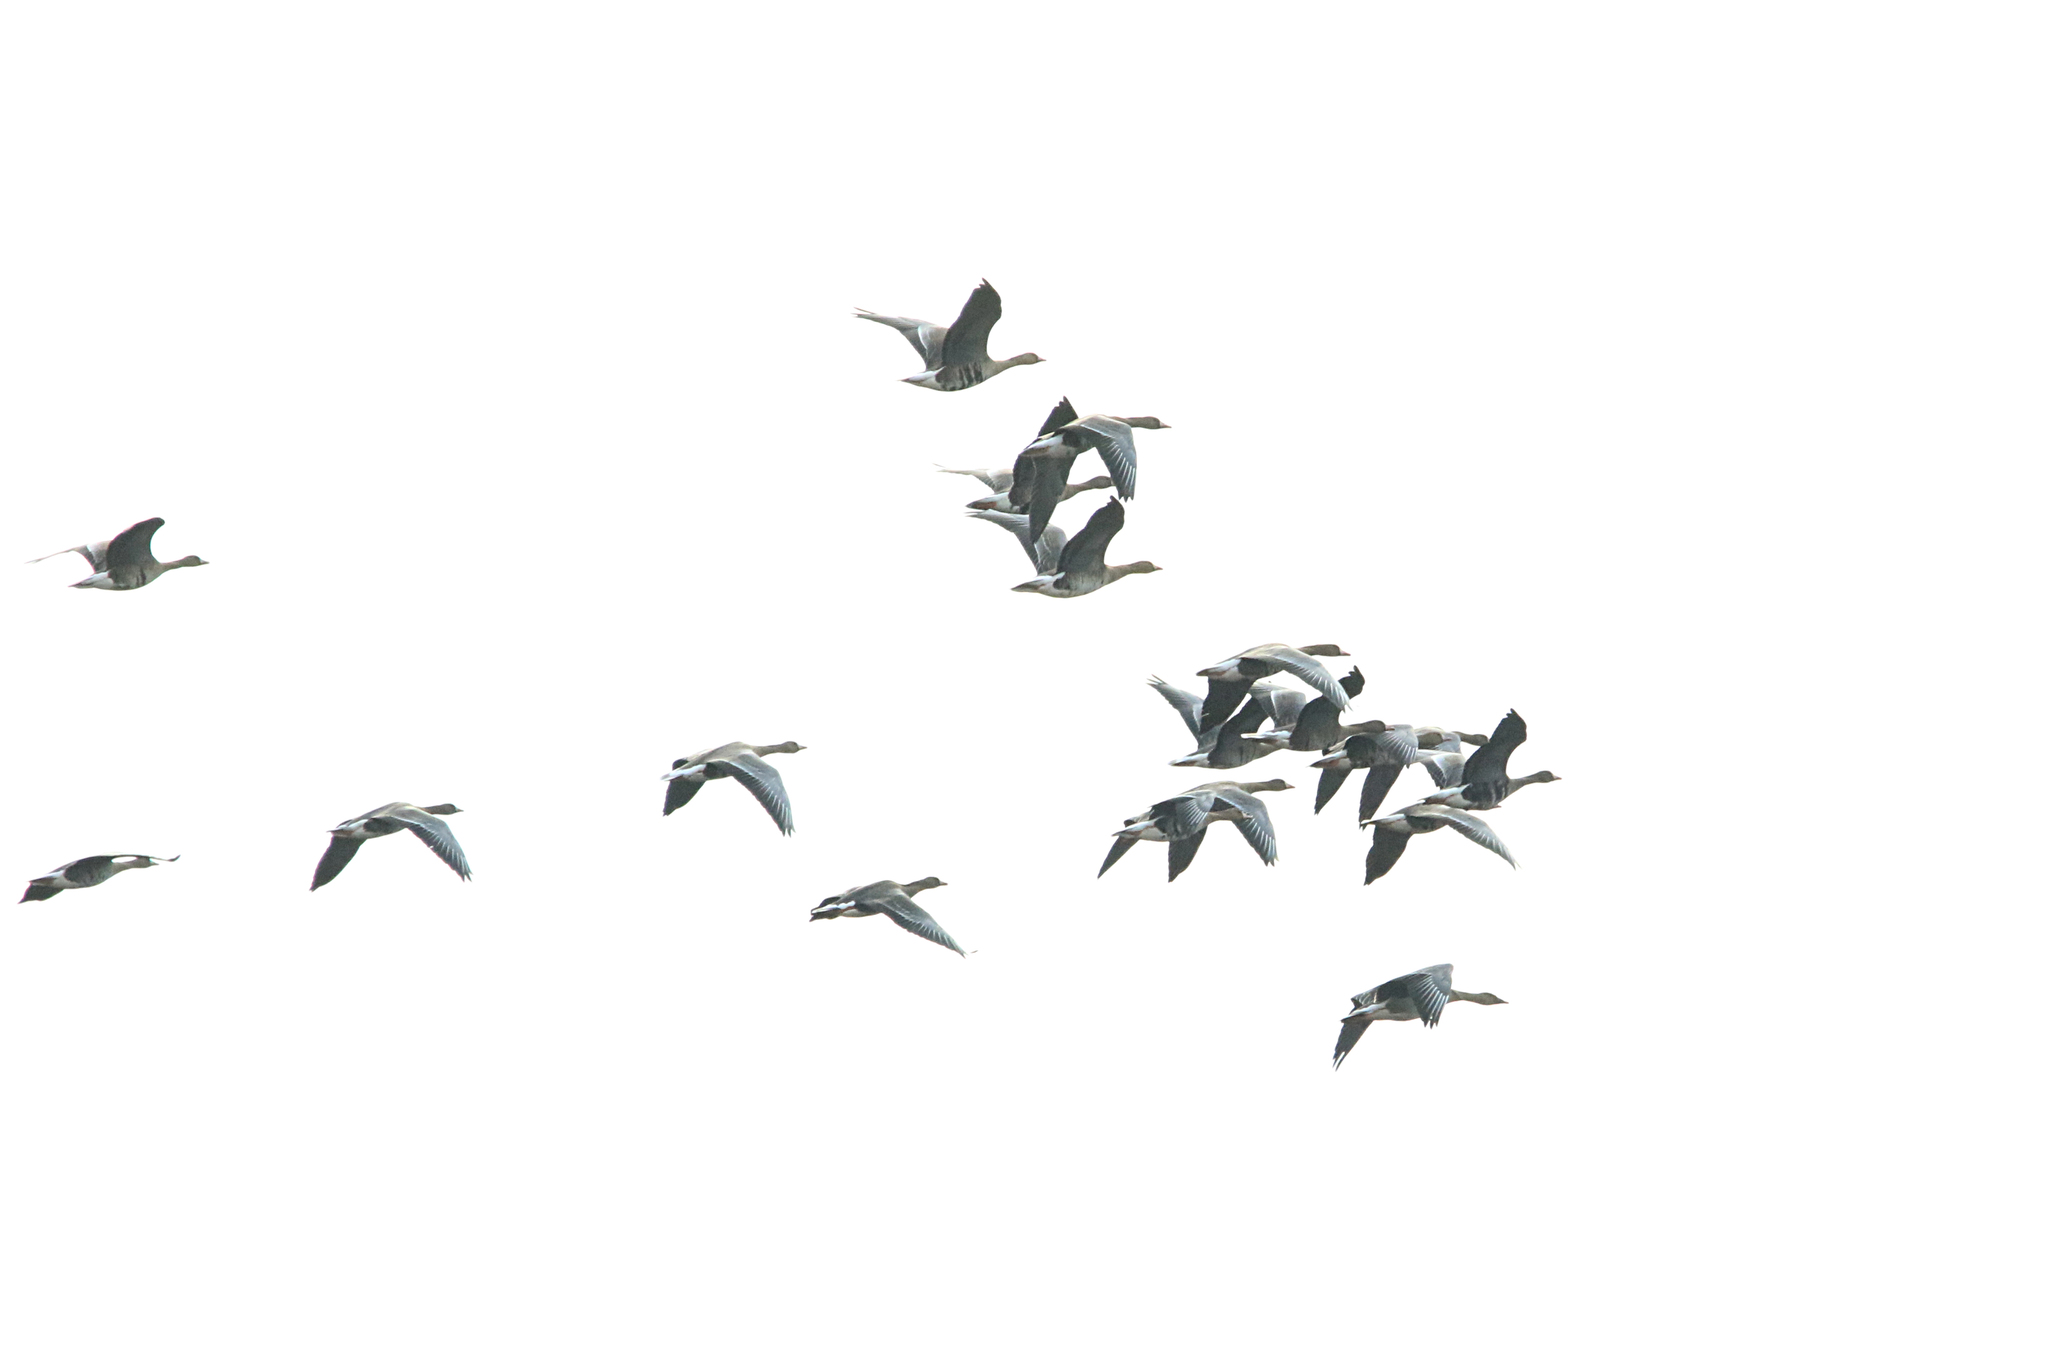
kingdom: Animalia
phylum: Chordata
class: Aves
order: Anseriformes
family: Anatidae
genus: Anser
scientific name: Anser albifrons
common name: Greater white-fronted goose
